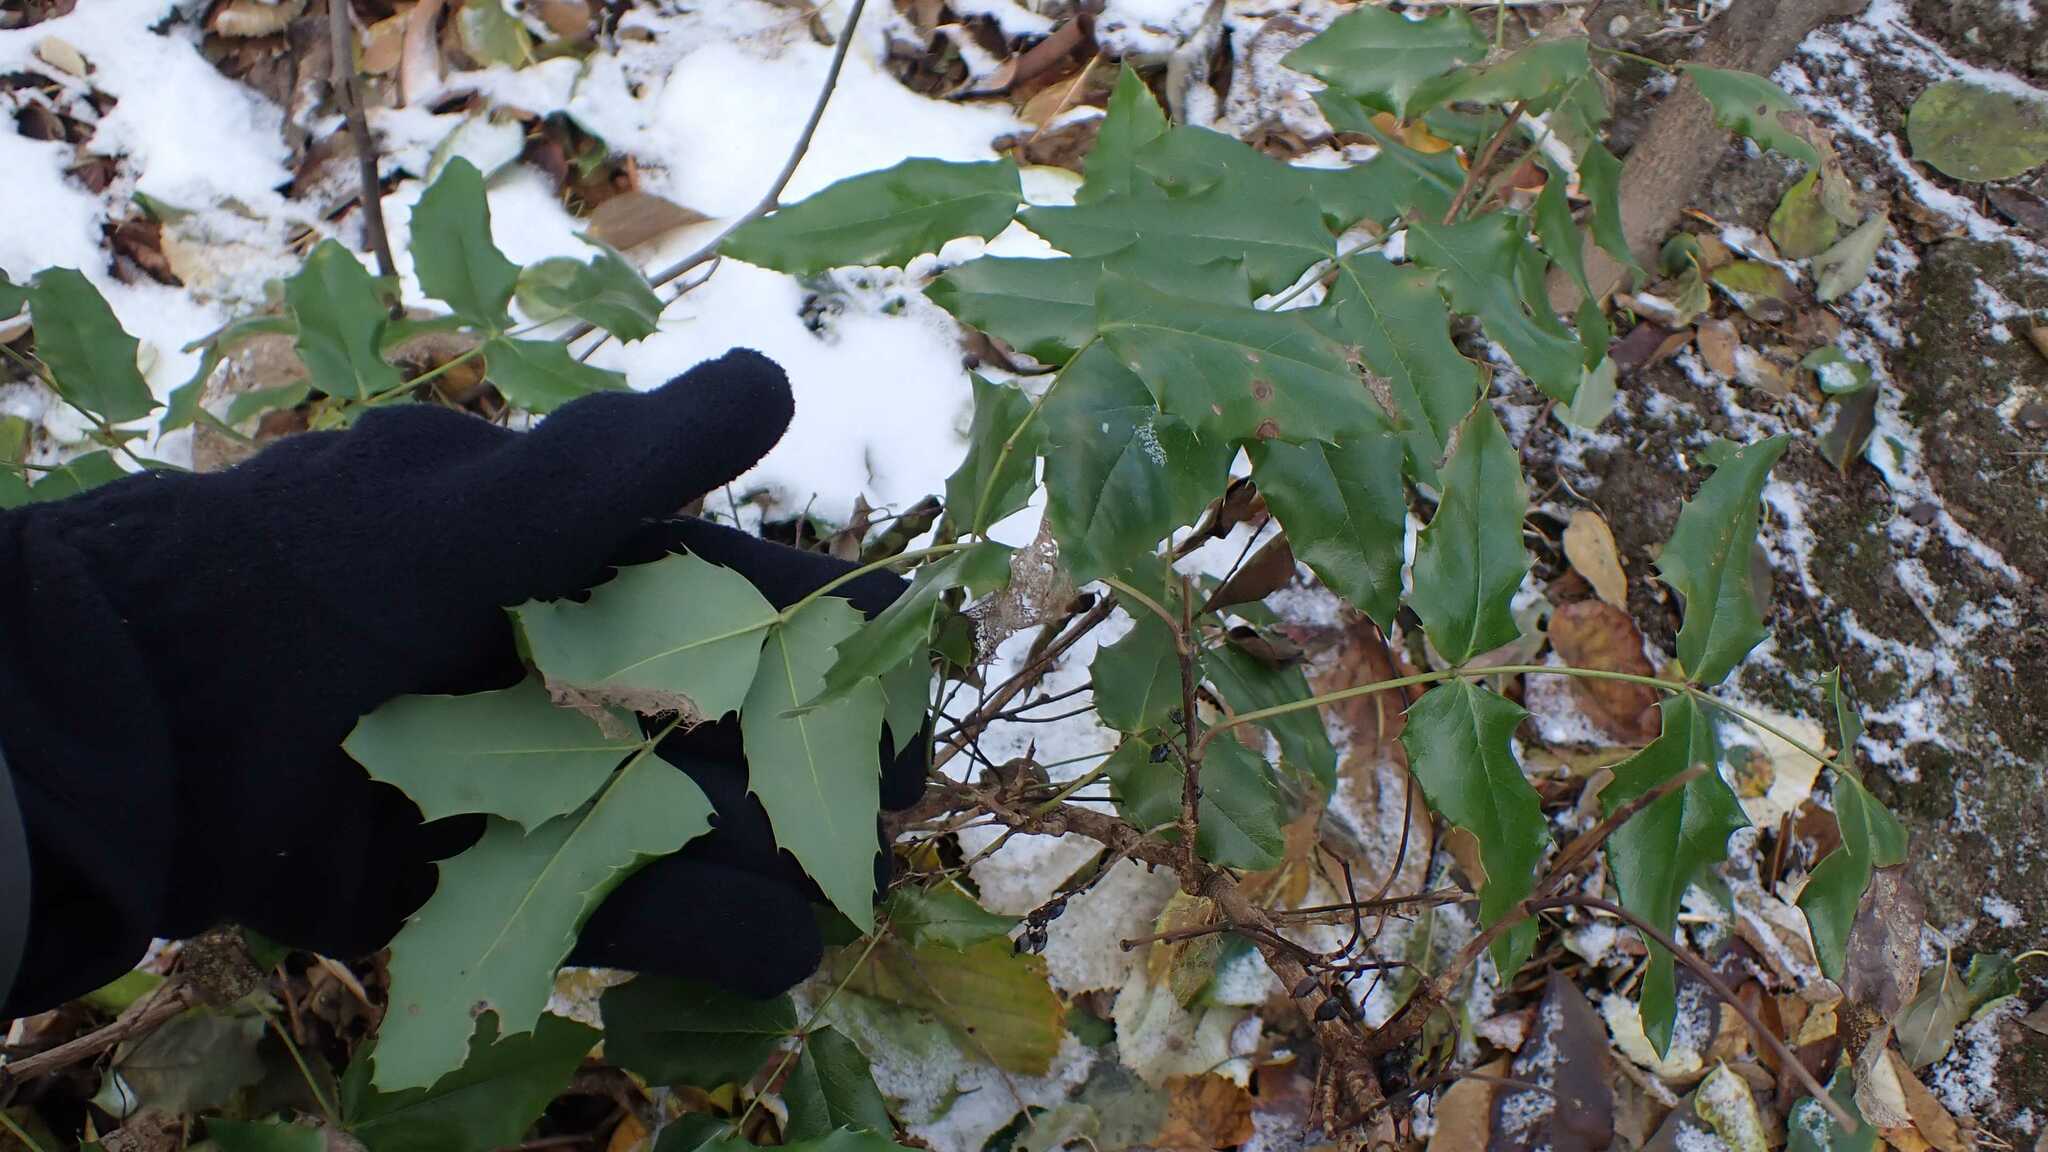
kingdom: Plantae
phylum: Tracheophyta
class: Magnoliopsida
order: Ranunculales
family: Berberidaceae
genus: Mahonia
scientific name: Mahonia aquifolium
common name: Oregon-grape
